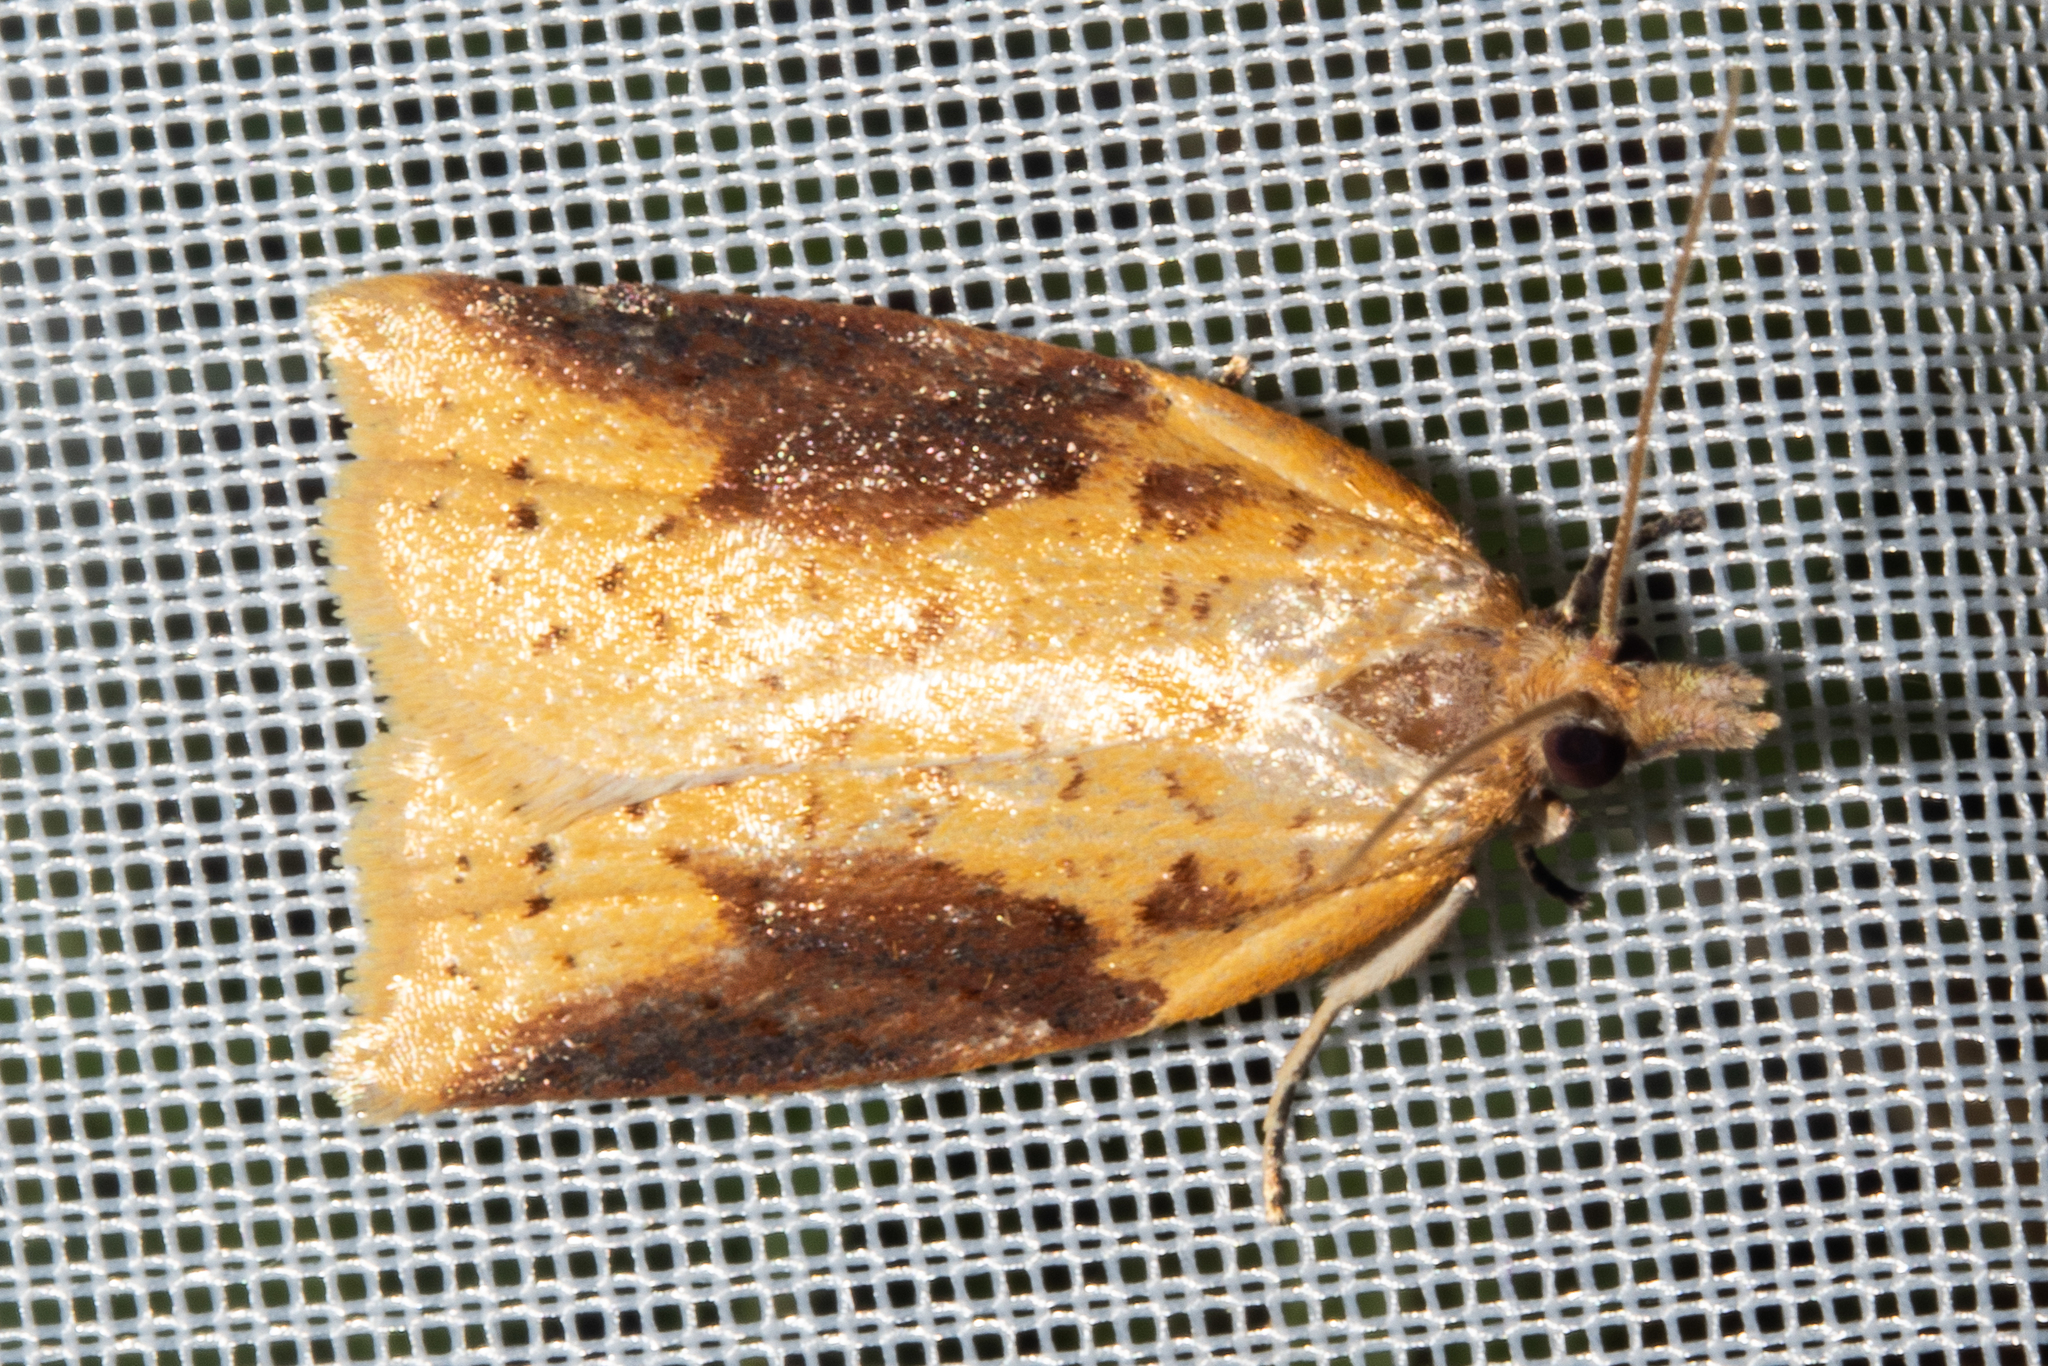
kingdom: Animalia
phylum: Arthropoda
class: Insecta
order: Lepidoptera
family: Tortricidae
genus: Apoctena
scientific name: Apoctena conditana
